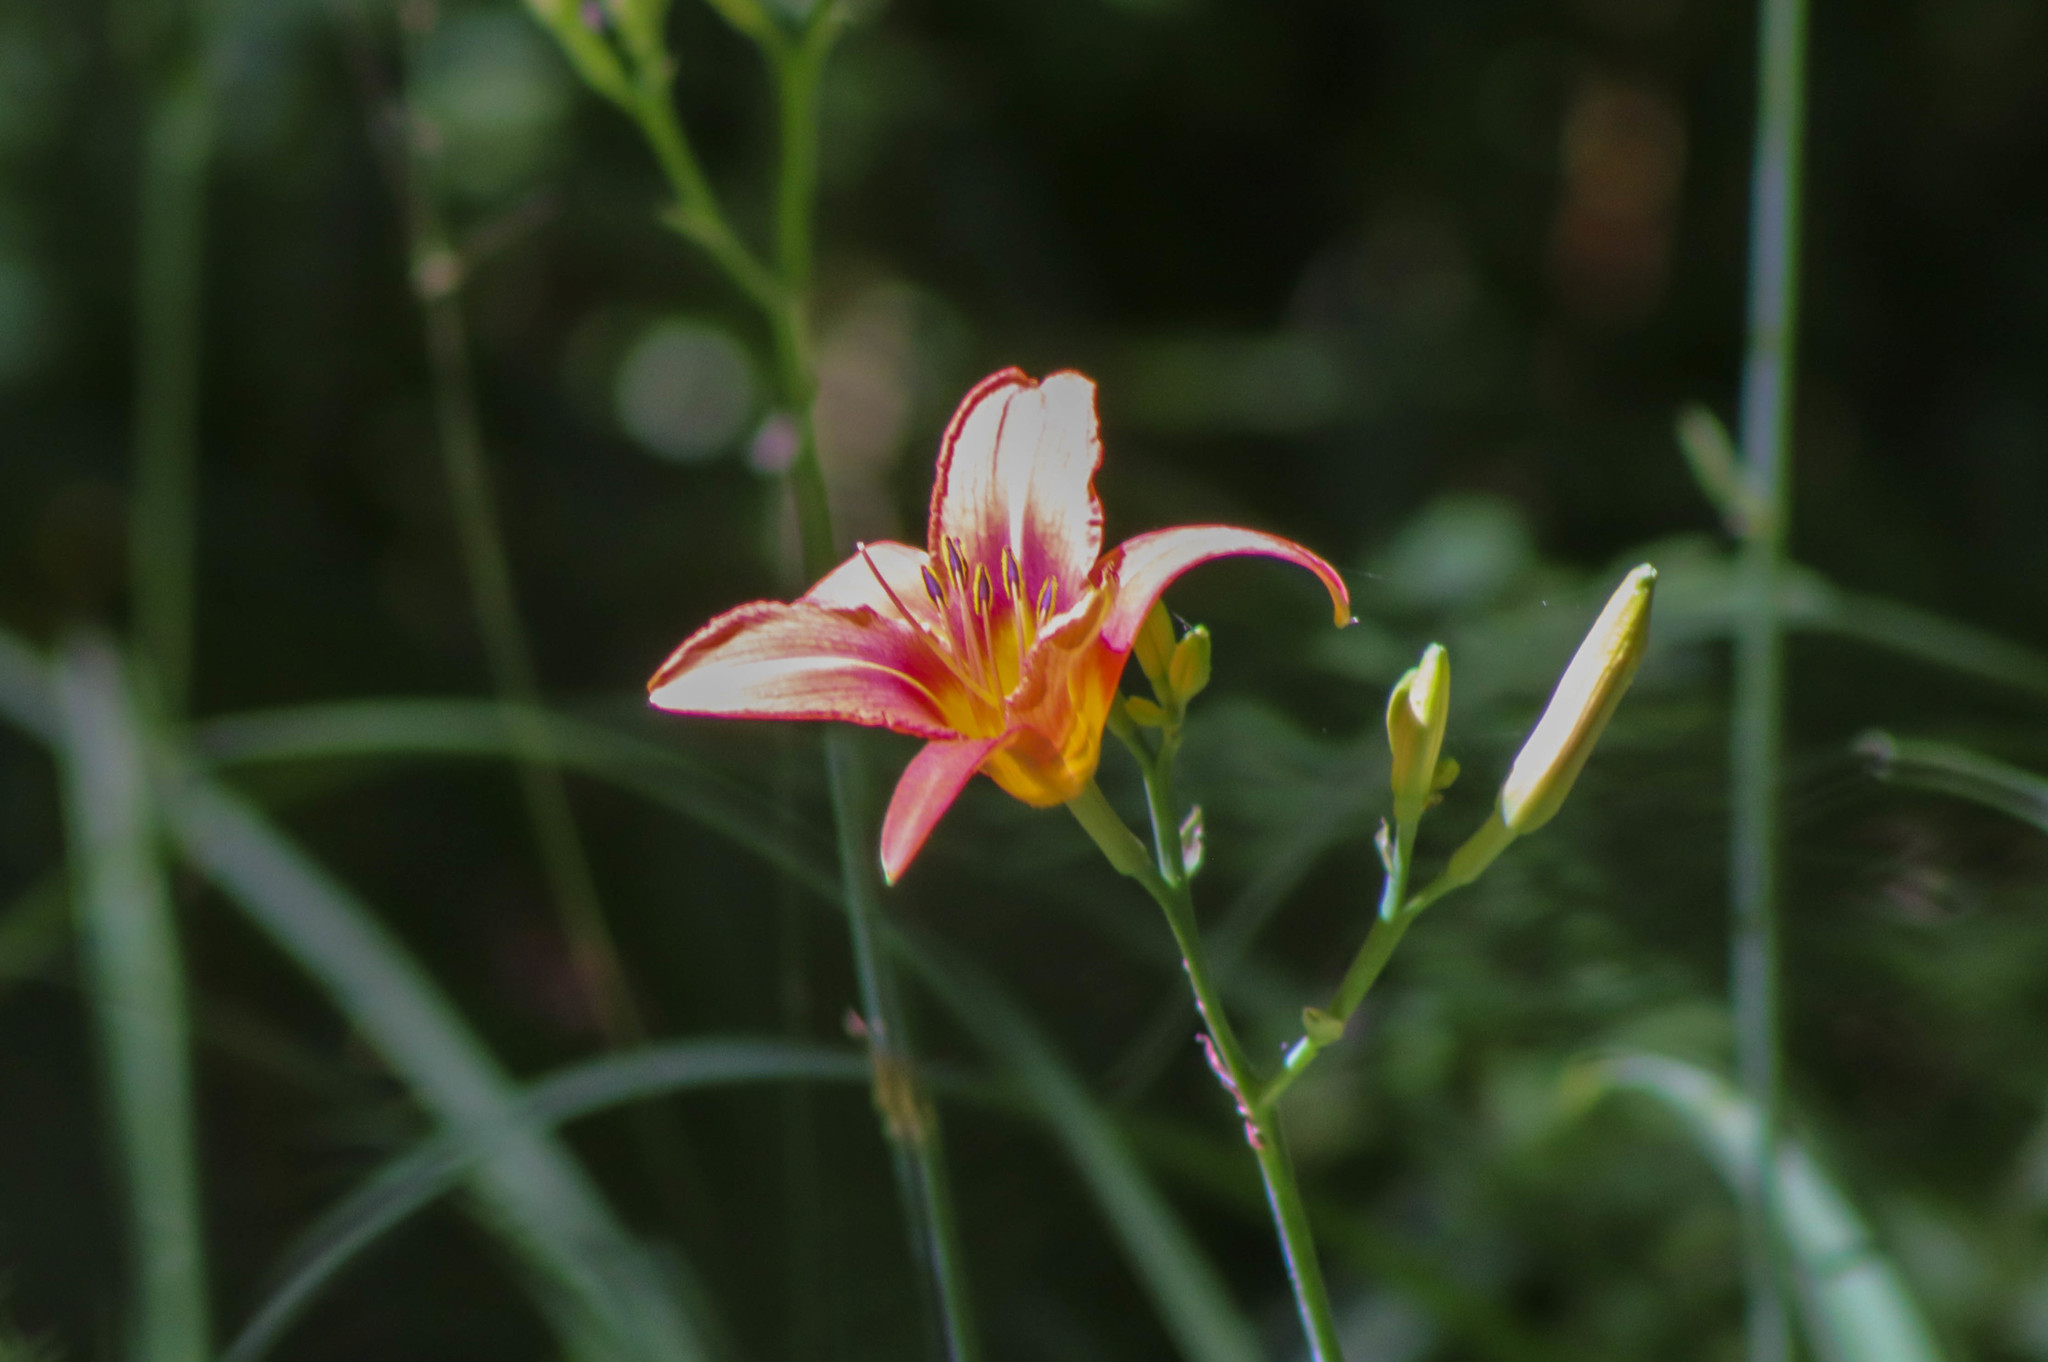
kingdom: Plantae
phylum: Tracheophyta
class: Liliopsida
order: Asparagales
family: Asphodelaceae
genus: Hemerocallis
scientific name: Hemerocallis fulva
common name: Orange day-lily
